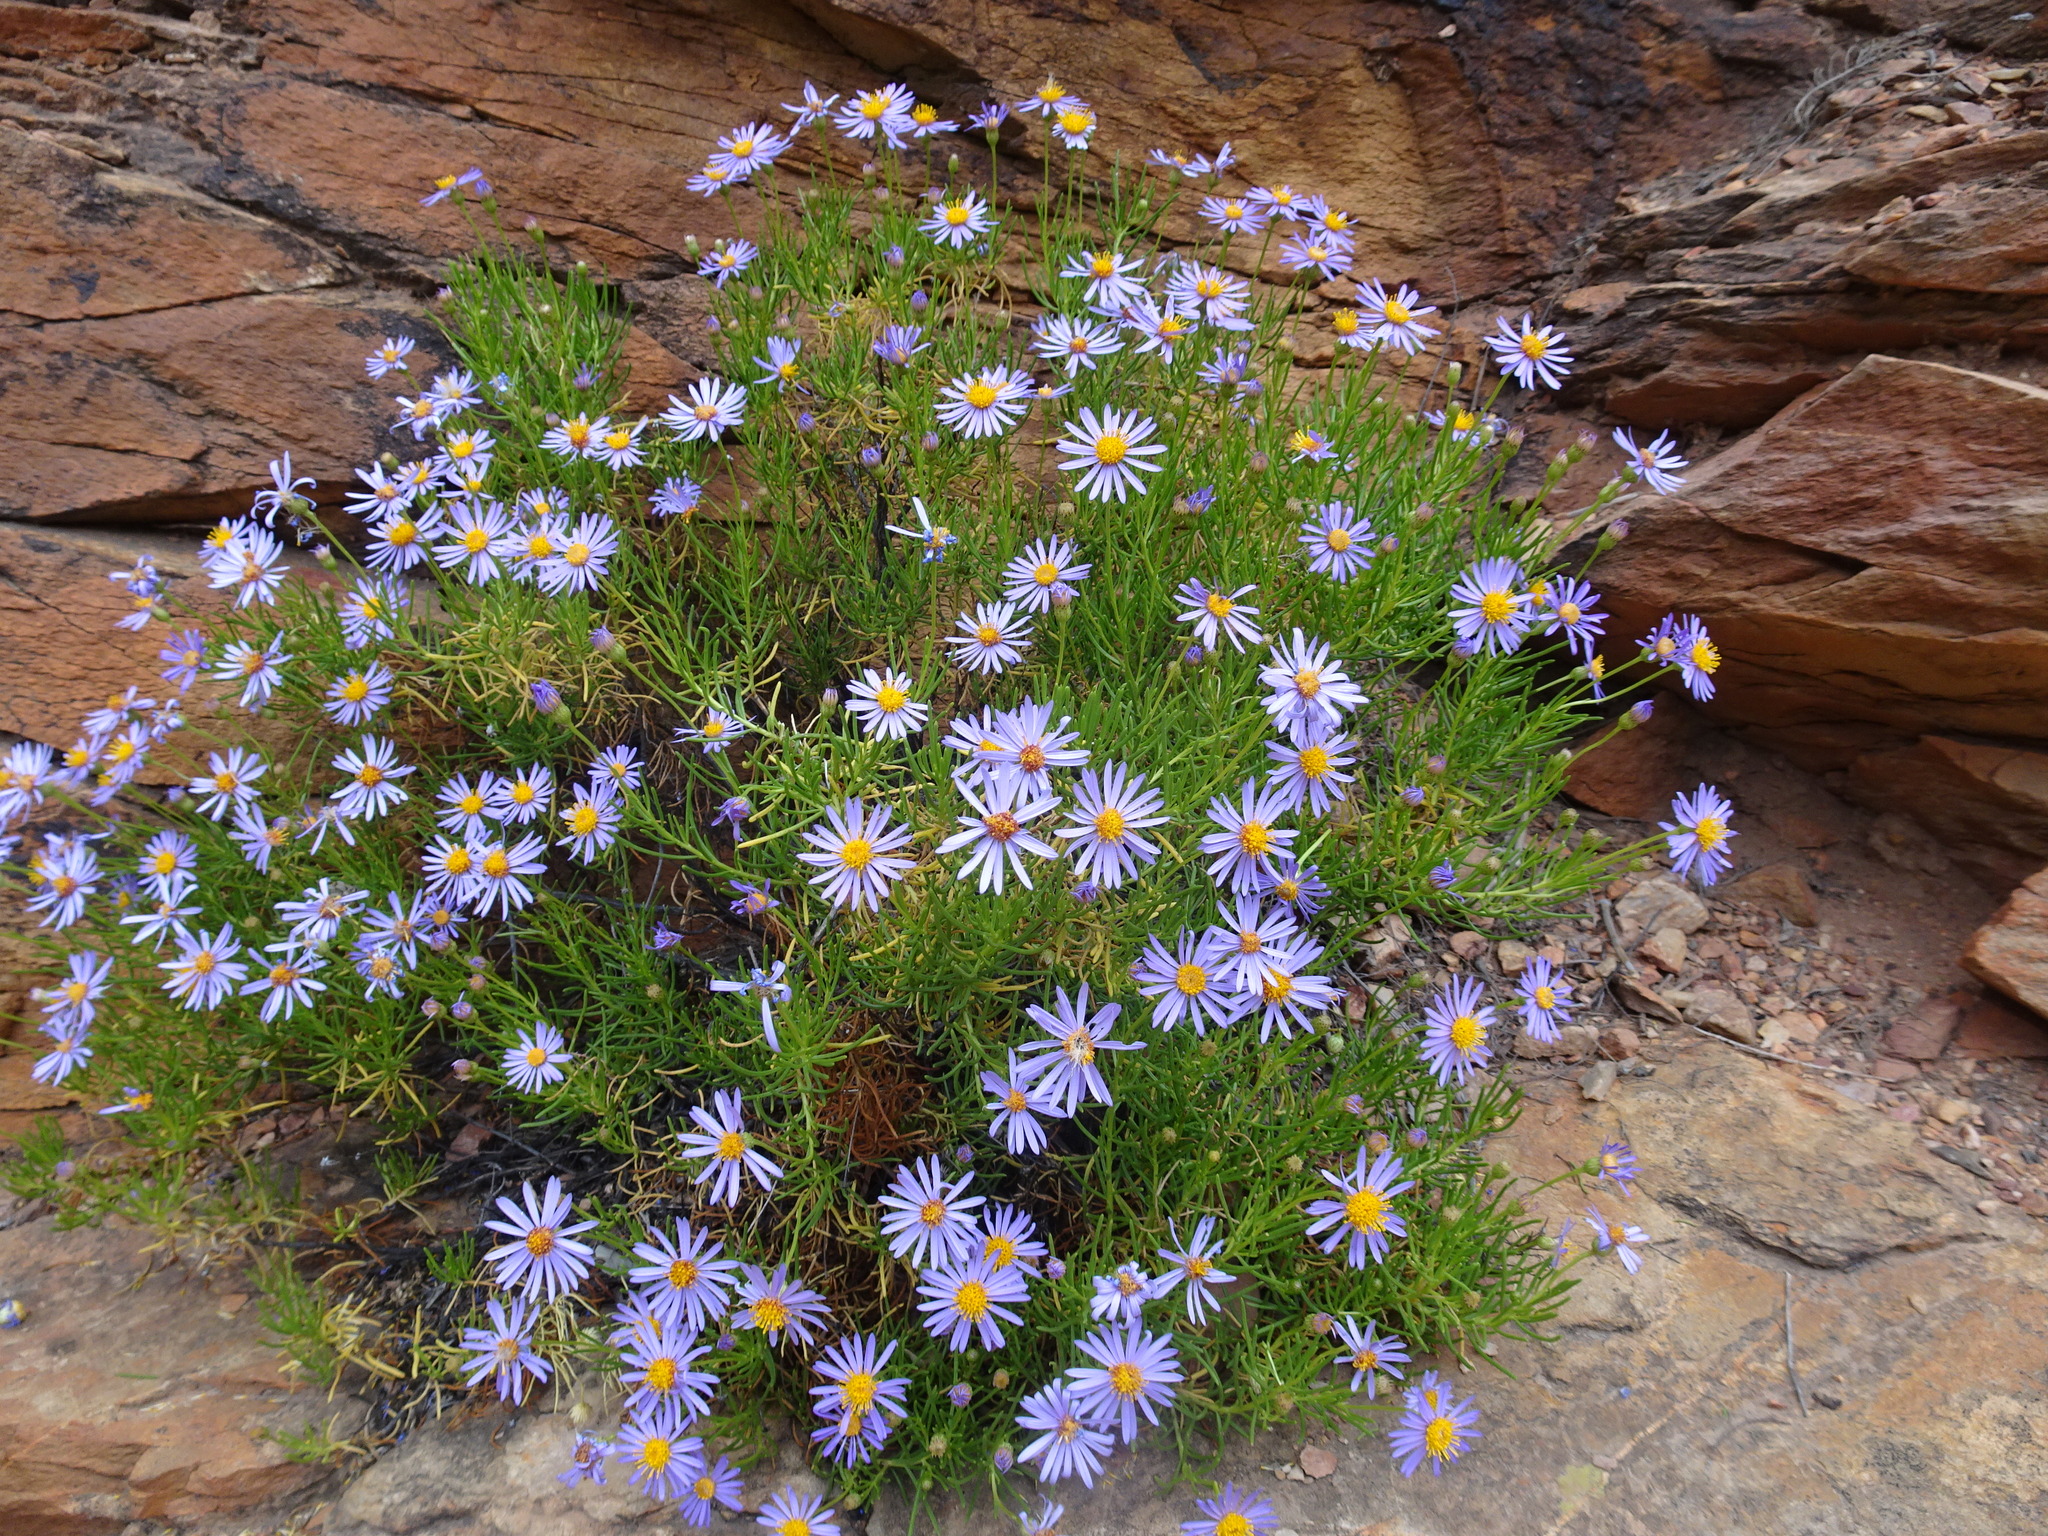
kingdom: Plantae
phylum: Tracheophyta
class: Magnoliopsida
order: Asterales
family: Asteraceae
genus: Felicia
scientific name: Felicia filifolia
